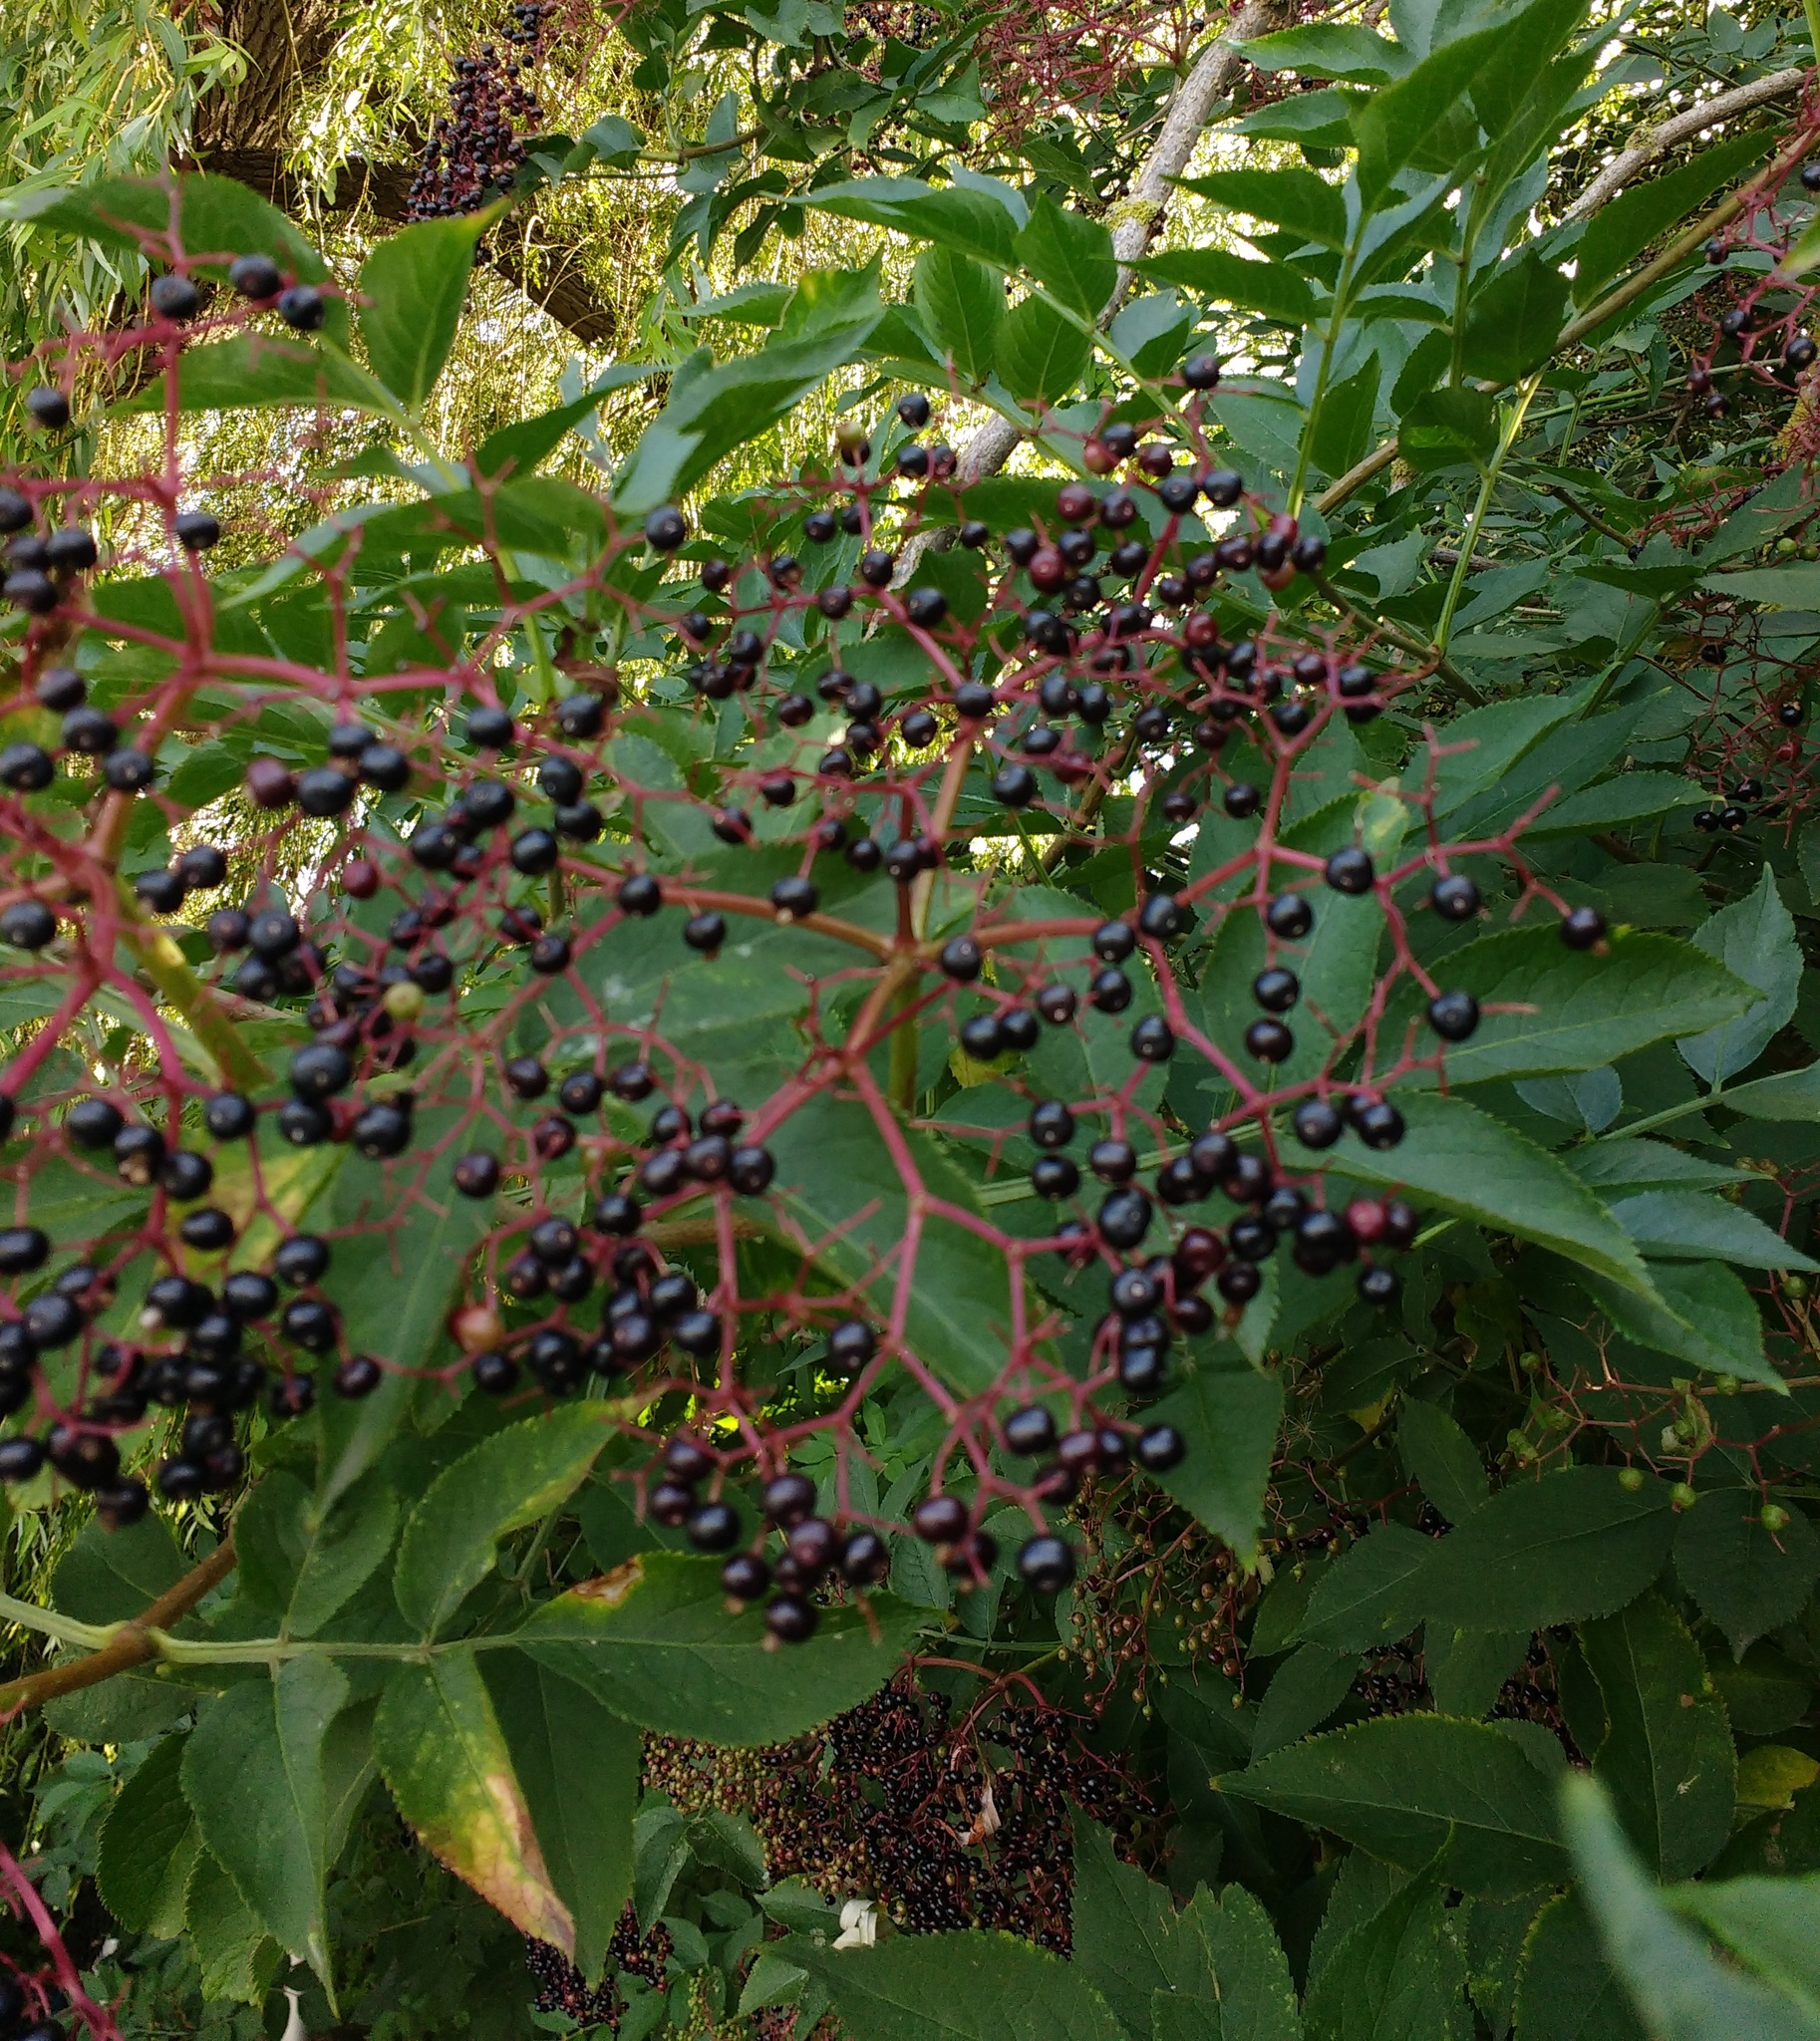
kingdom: Plantae
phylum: Tracheophyta
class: Magnoliopsida
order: Dipsacales
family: Viburnaceae
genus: Sambucus
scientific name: Sambucus nigra
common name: Elder
